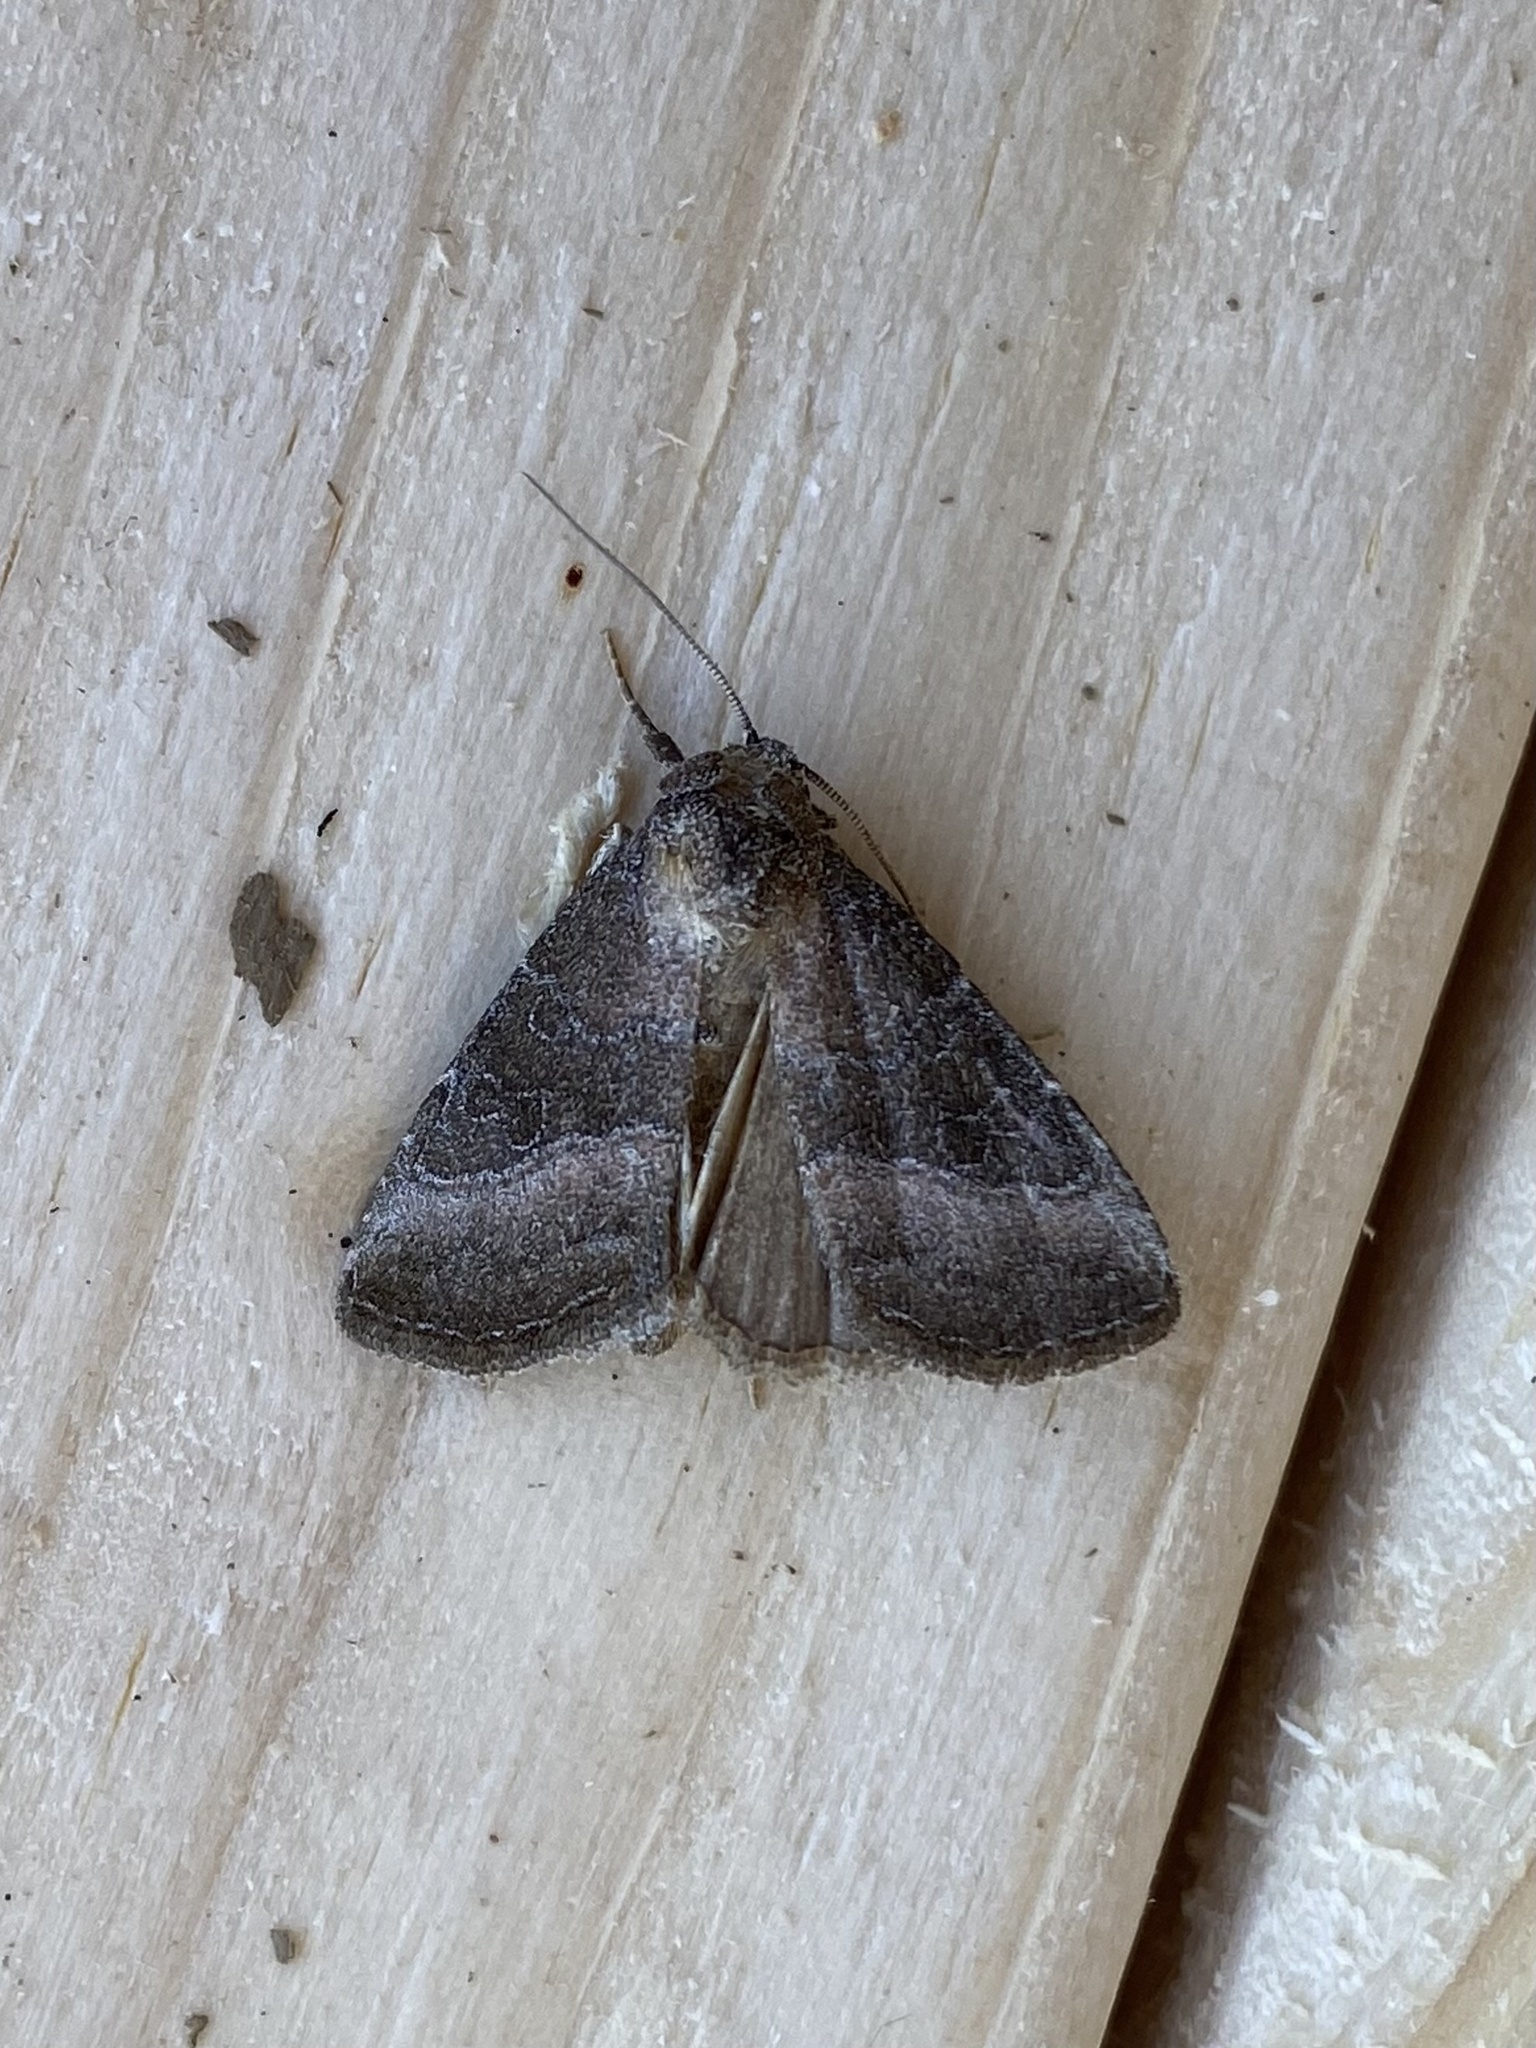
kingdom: Animalia
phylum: Arthropoda
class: Insecta
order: Lepidoptera
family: Noctuidae
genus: Ogdoconta
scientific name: Ogdoconta cinereola
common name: Common pinkband
